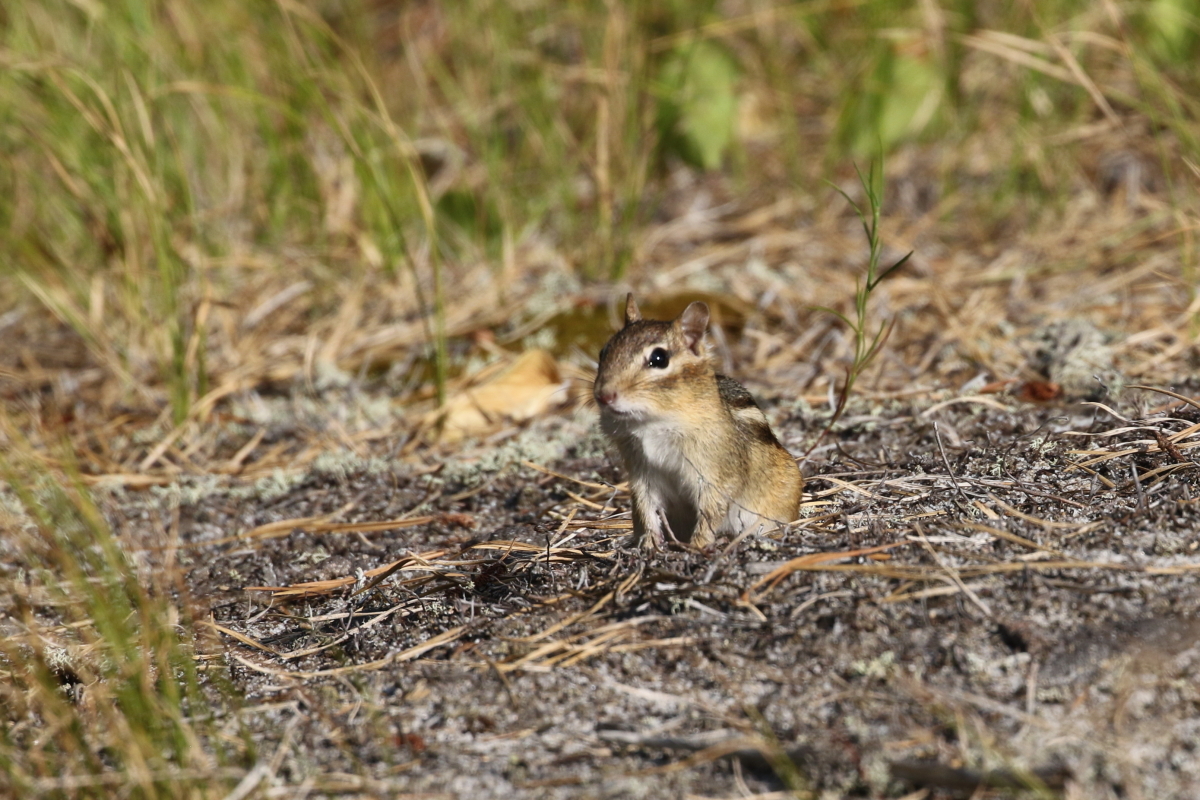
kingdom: Animalia
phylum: Chordata
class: Mammalia
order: Rodentia
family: Sciuridae
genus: Tamias
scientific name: Tamias striatus
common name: Eastern chipmunk
